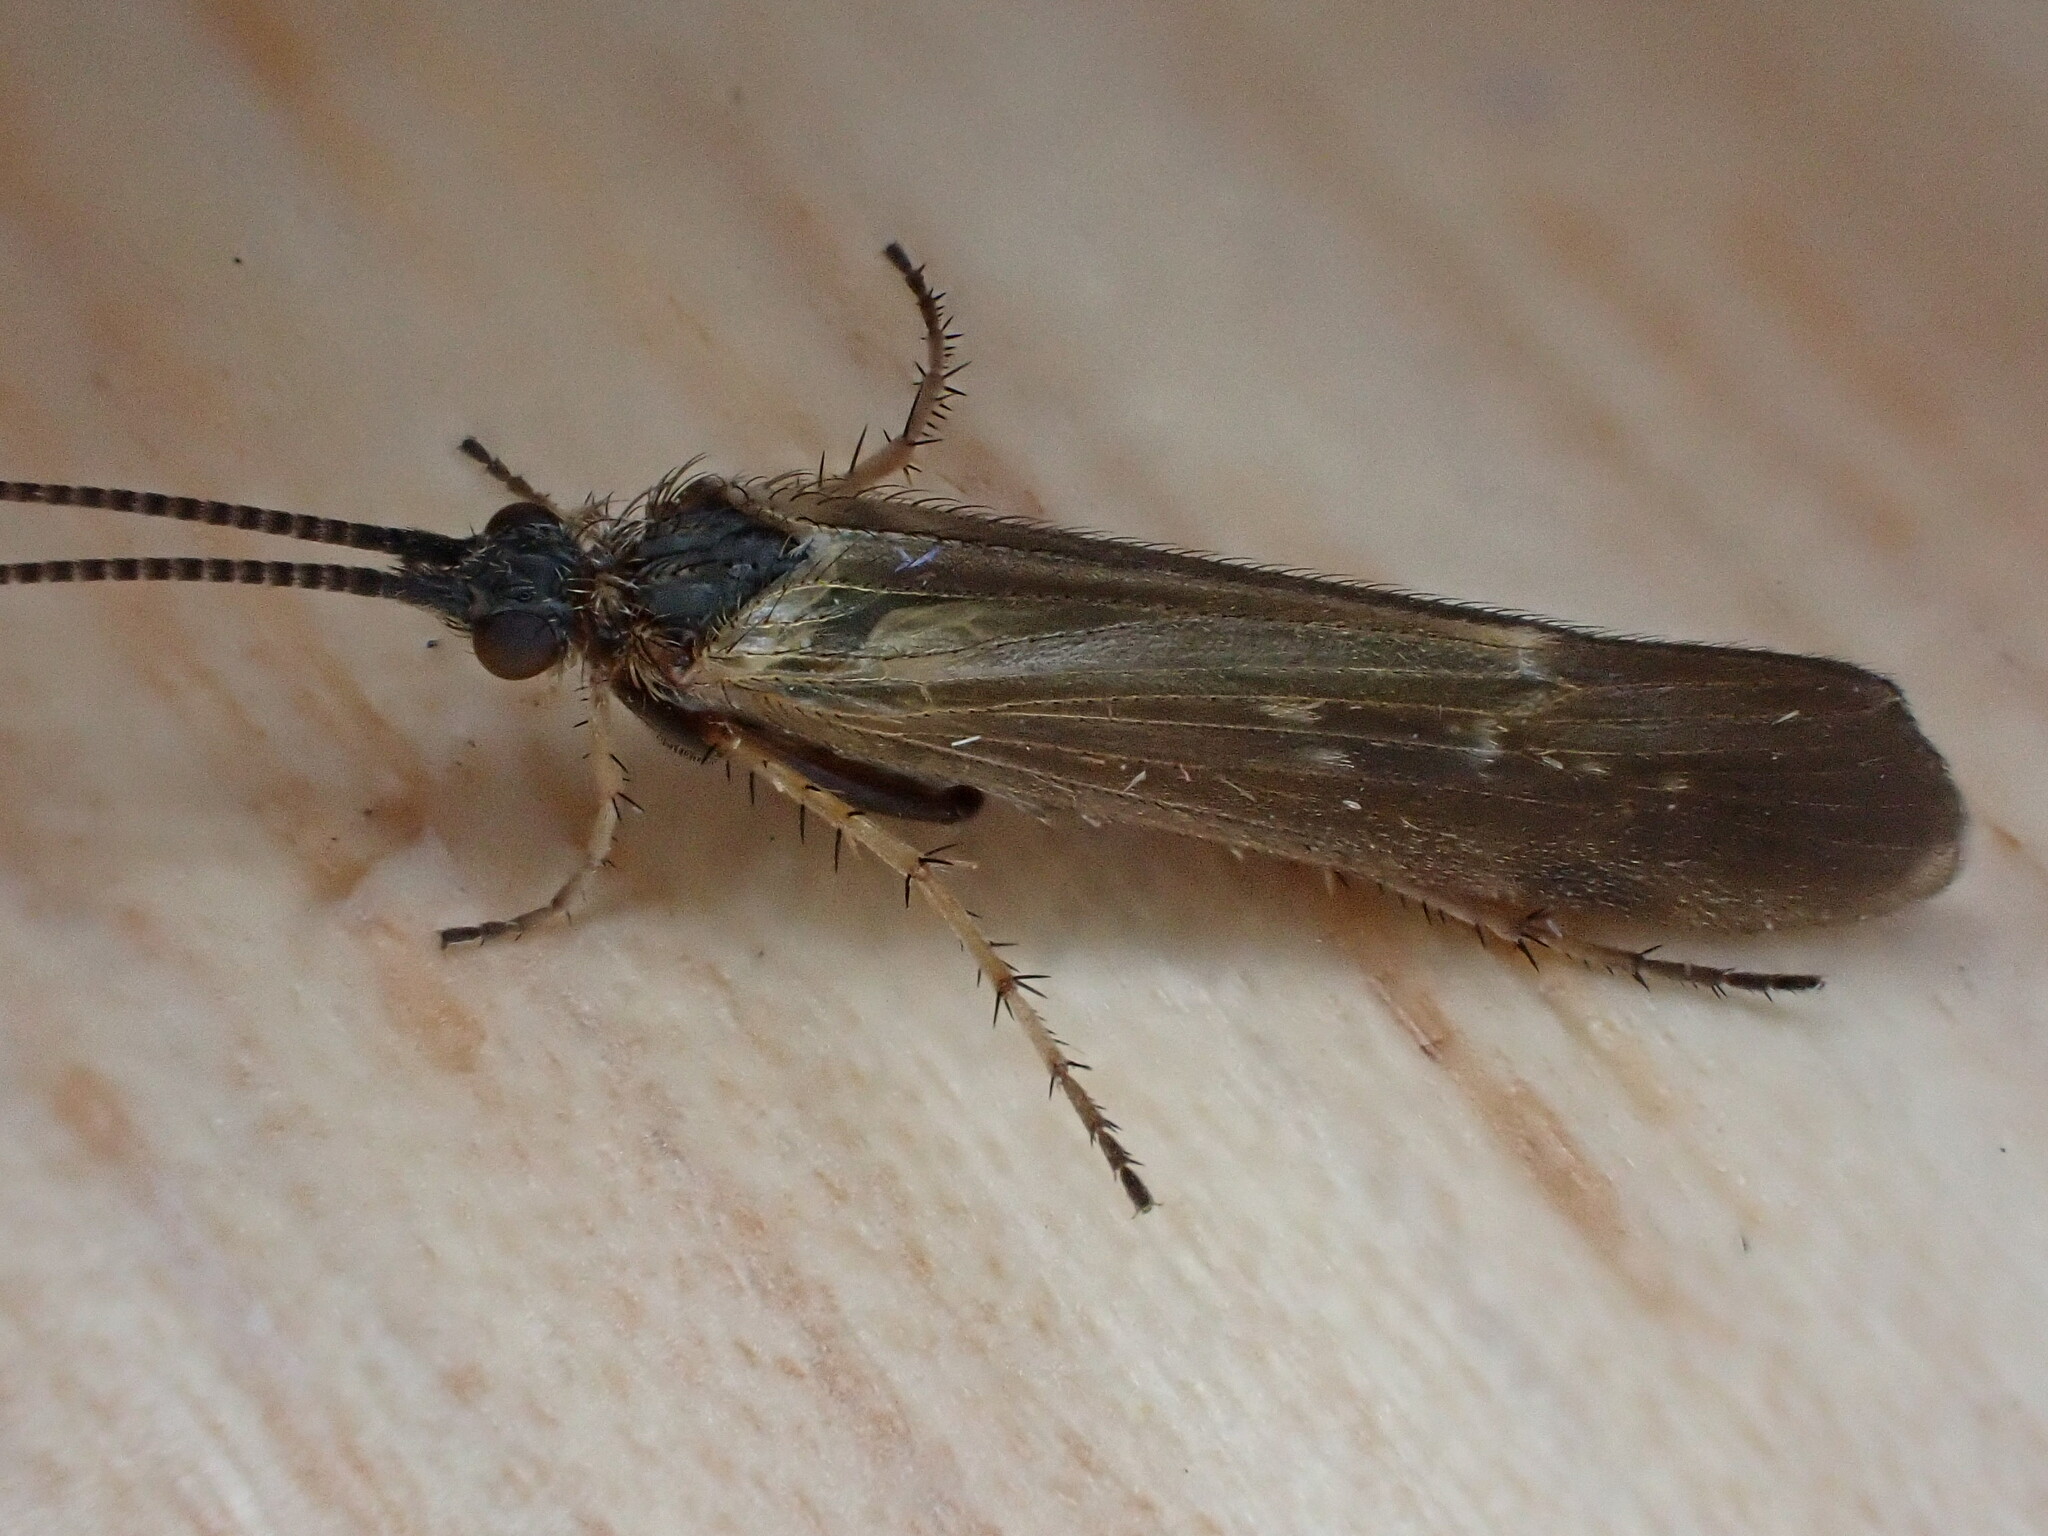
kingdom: Animalia
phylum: Arthropoda
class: Insecta
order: Trichoptera
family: Limnephilidae
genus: Limnephilus
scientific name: Limnephilus auricula
